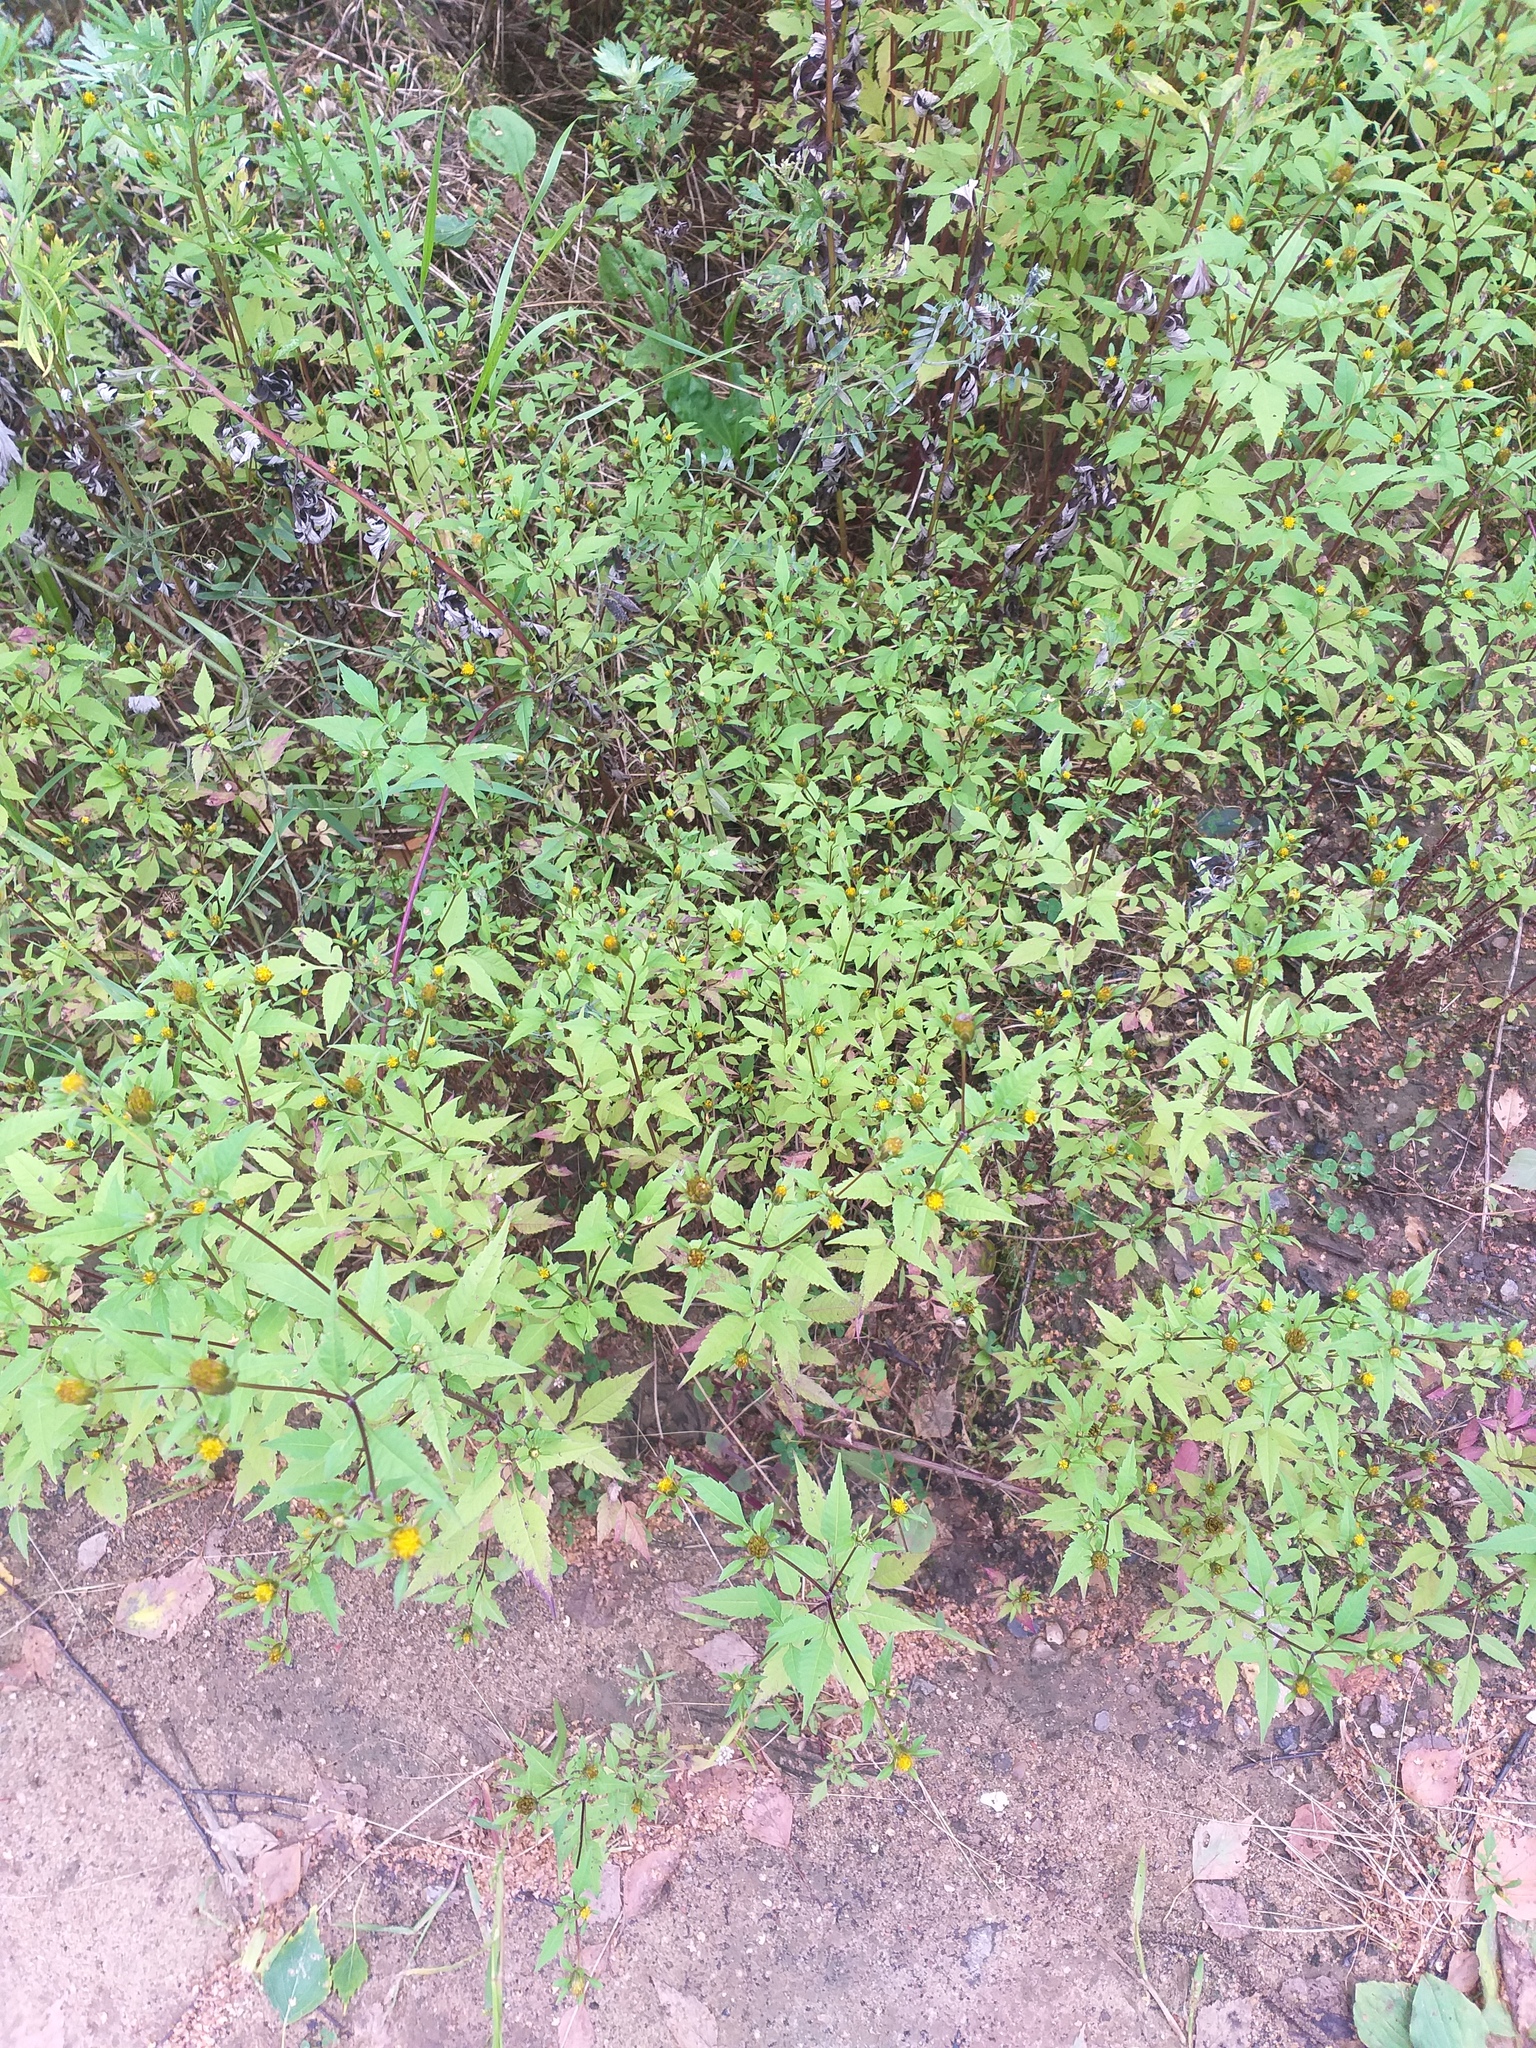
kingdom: Plantae
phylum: Tracheophyta
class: Magnoliopsida
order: Asterales
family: Asteraceae
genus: Bidens
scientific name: Bidens frondosa
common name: Beggarticks
